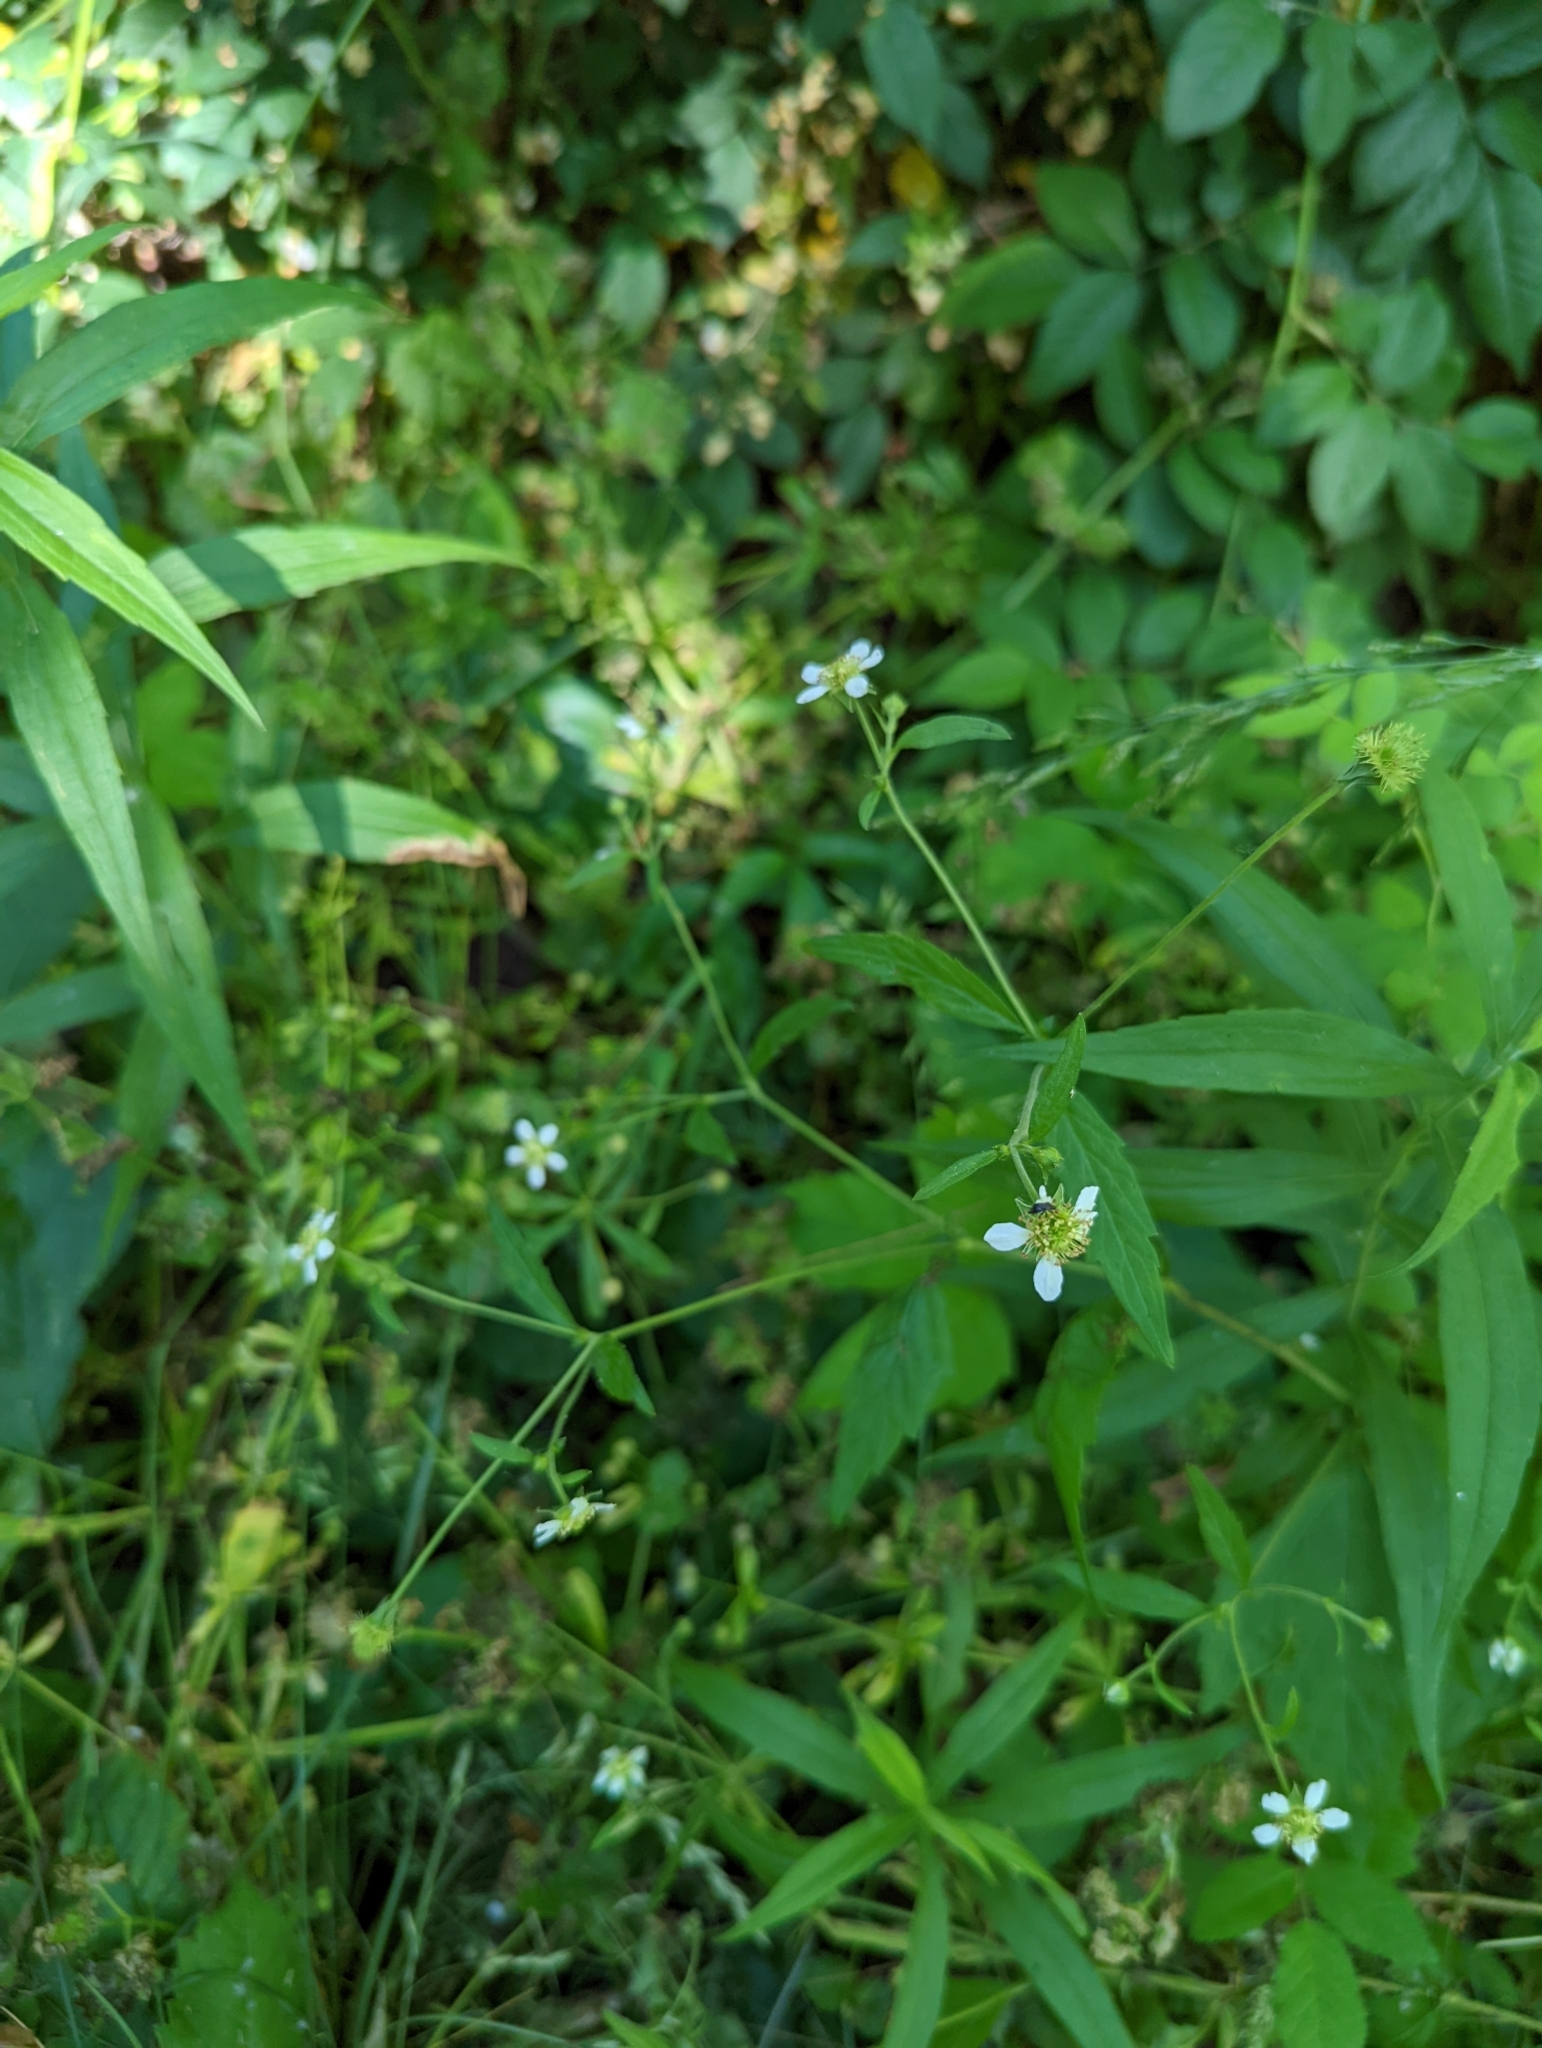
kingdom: Plantae
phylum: Tracheophyta
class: Magnoliopsida
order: Rosales
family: Rosaceae
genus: Geum
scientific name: Geum canadense
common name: White avens
